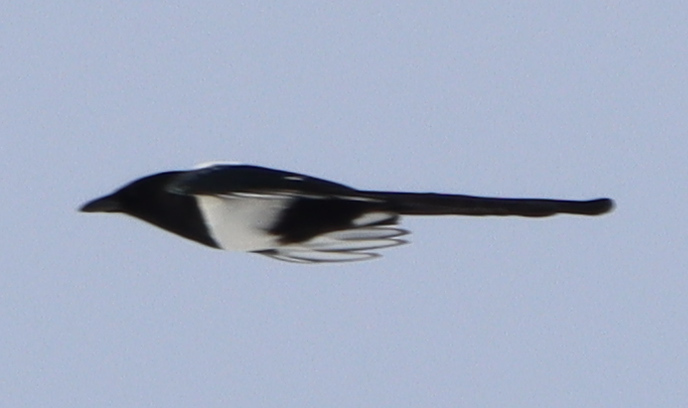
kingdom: Animalia
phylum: Chordata
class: Aves
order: Passeriformes
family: Corvidae
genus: Pica
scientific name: Pica hudsonia
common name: Black-billed magpie
